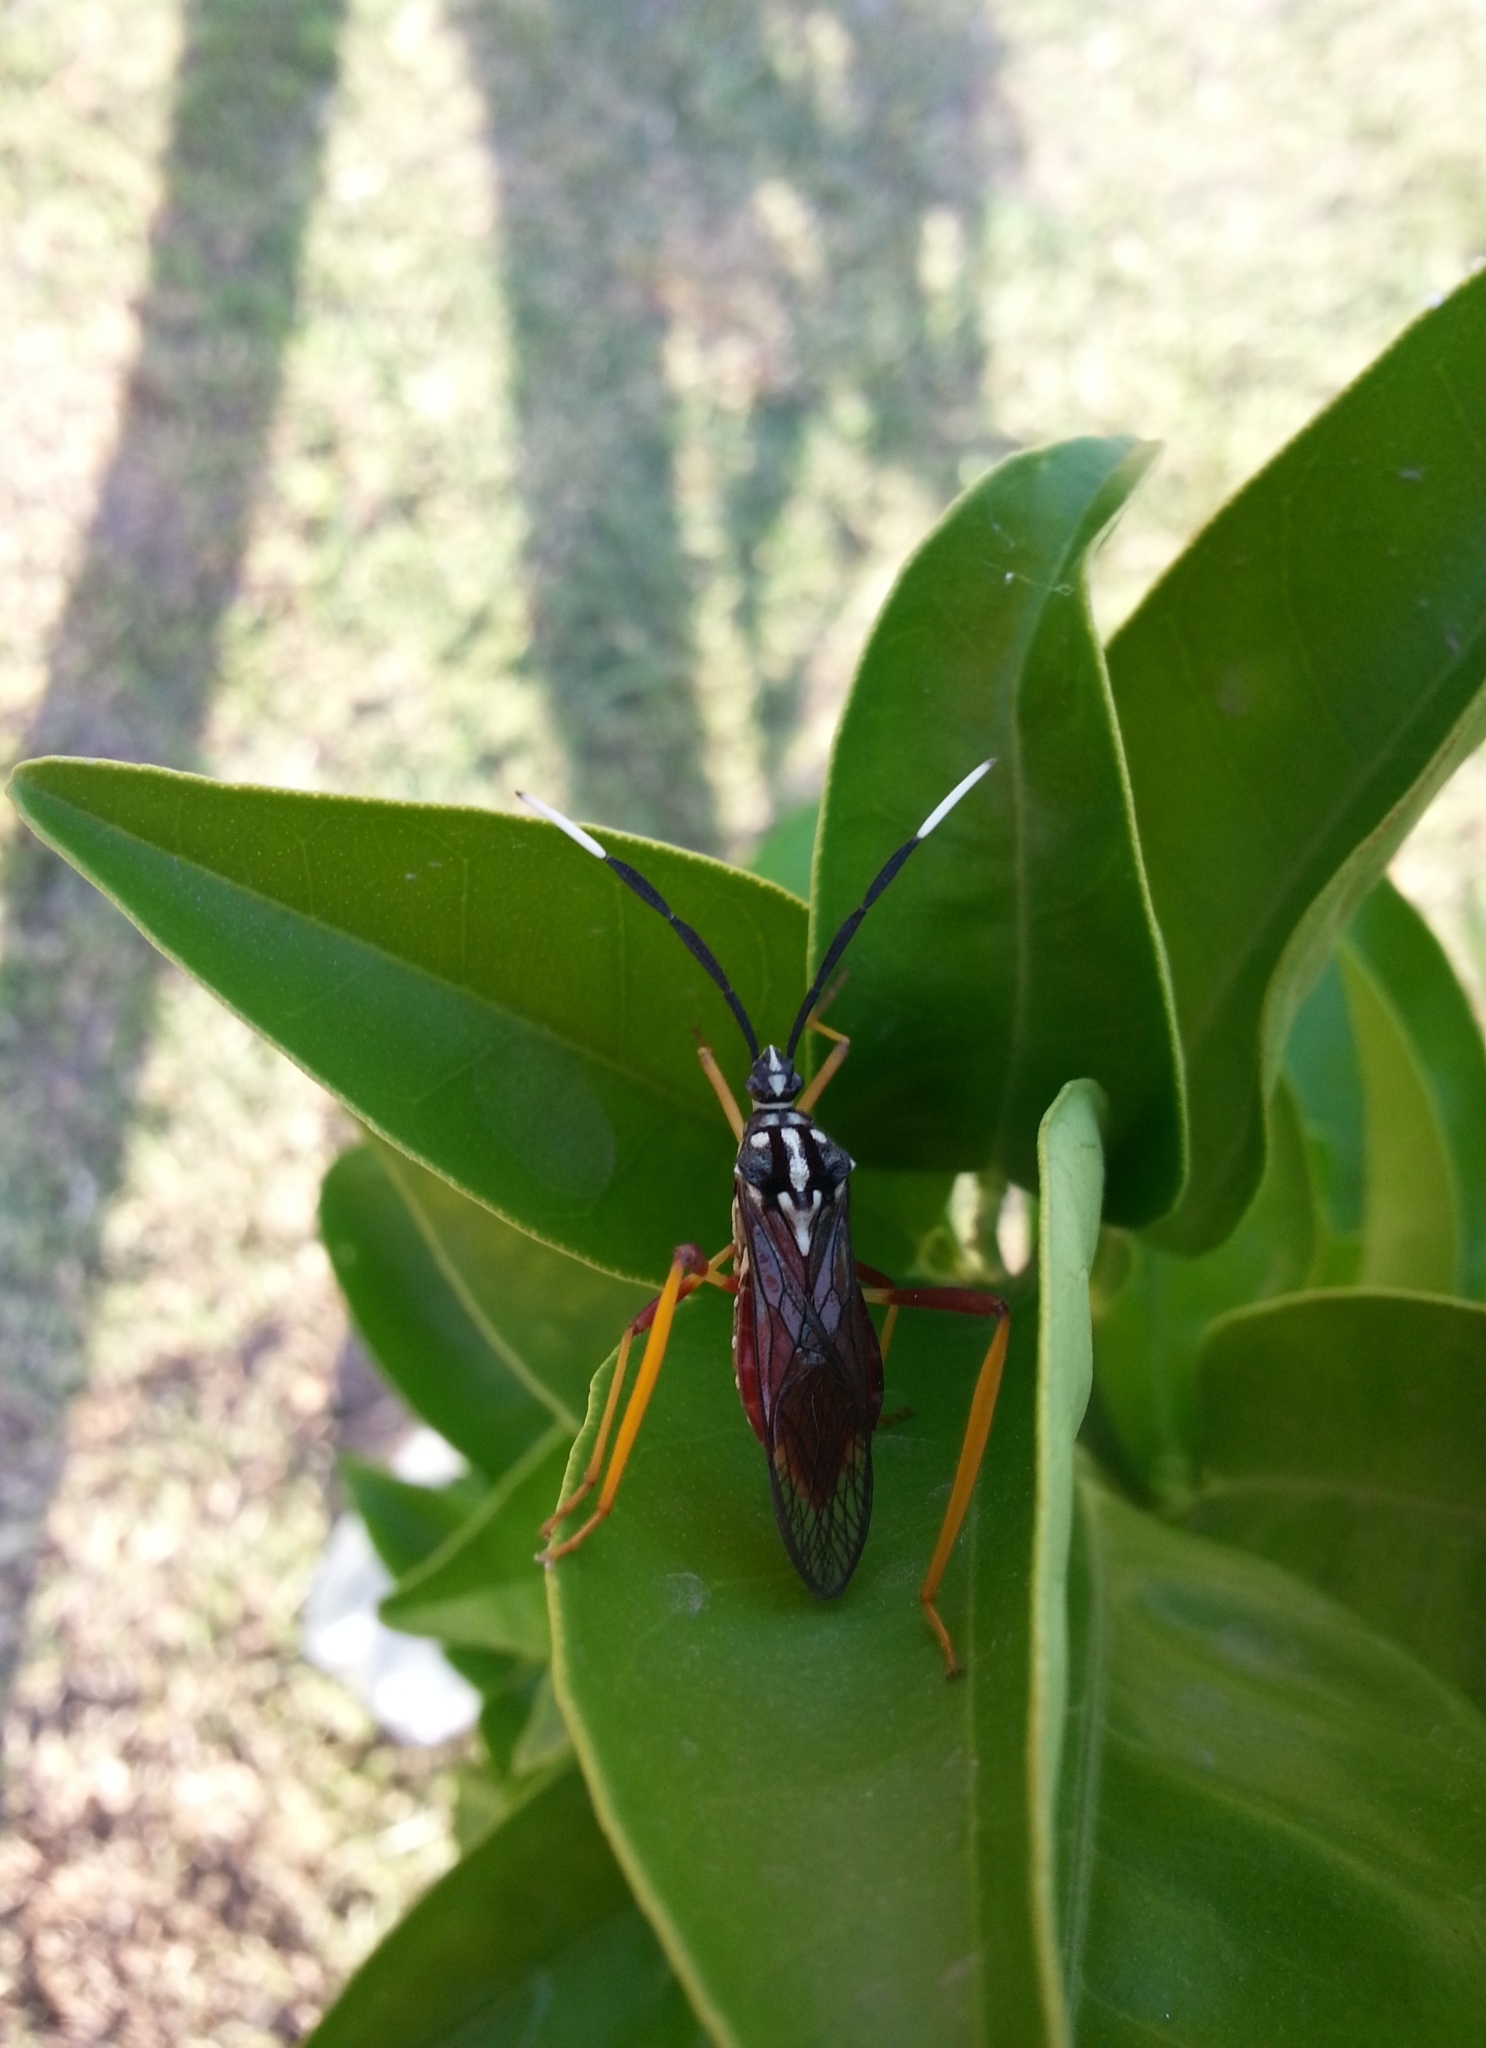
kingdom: Animalia
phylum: Arthropoda
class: Insecta
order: Hemiptera
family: Coreidae
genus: Holhymenia
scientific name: Holhymenia histrio
